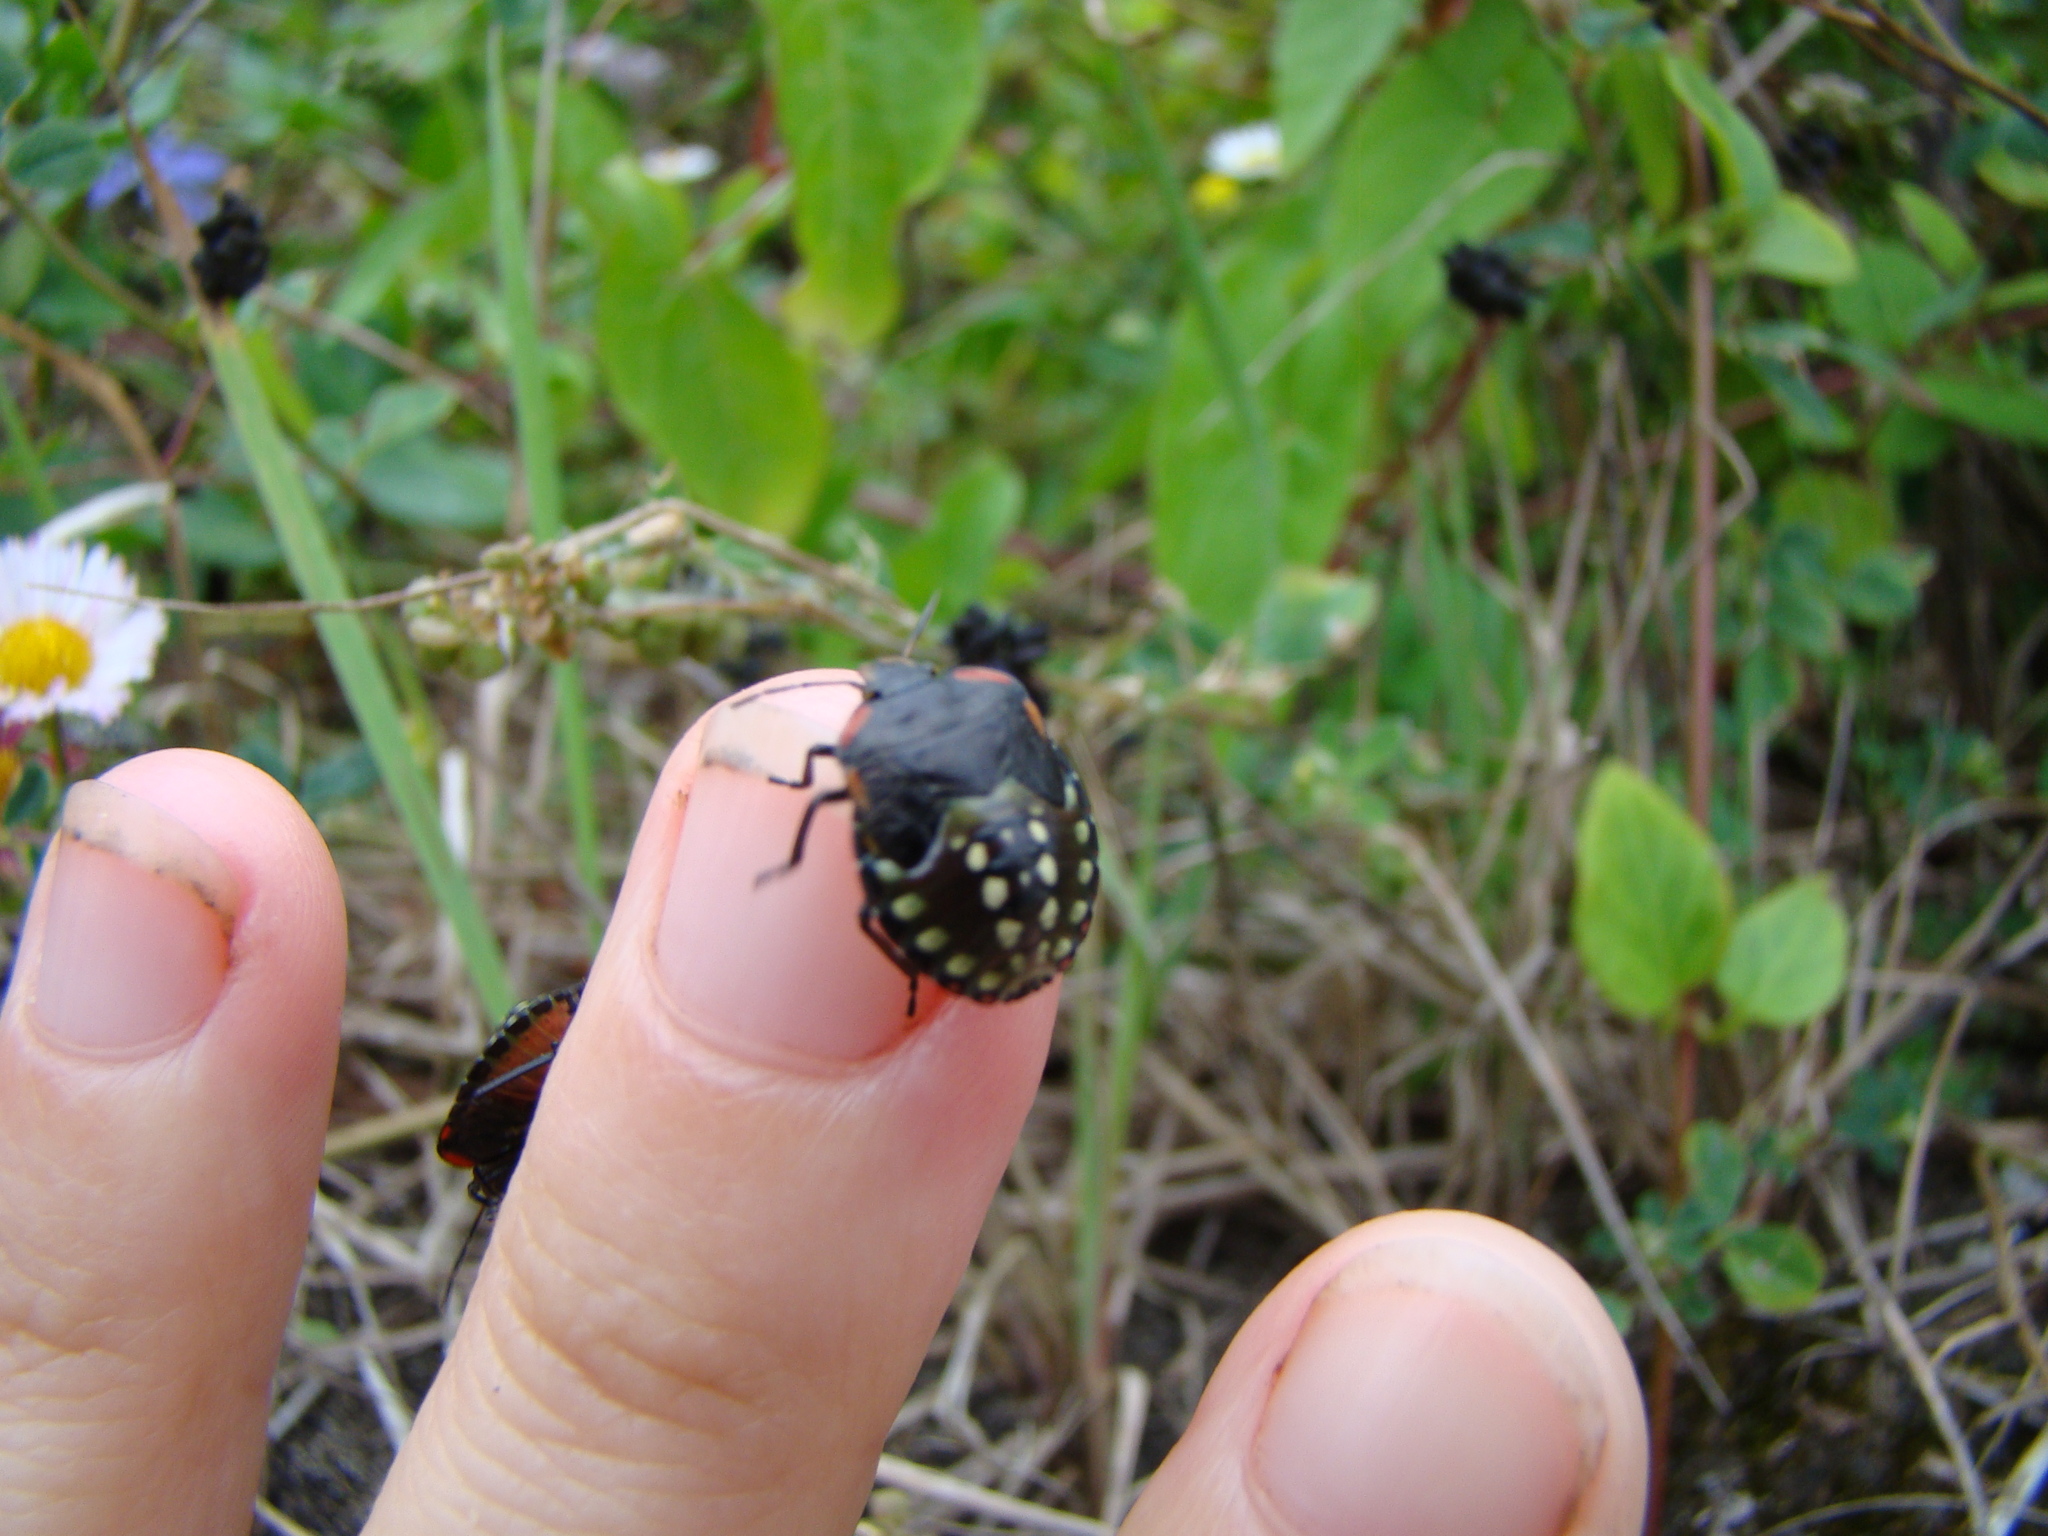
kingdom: Animalia
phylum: Arthropoda
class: Insecta
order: Hemiptera
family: Pentatomidae
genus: Nezara
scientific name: Nezara viridula
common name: Southern green stink bug
